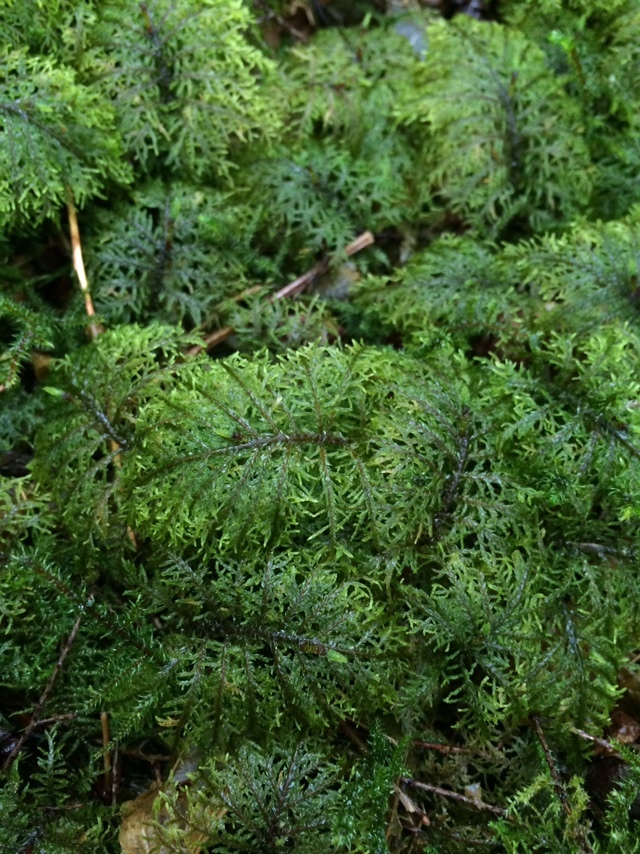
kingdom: Plantae
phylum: Bryophyta
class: Bryopsida
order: Hypnales
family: Hylocomiaceae
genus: Hylocomium
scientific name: Hylocomium splendens
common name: Stairstep moss
